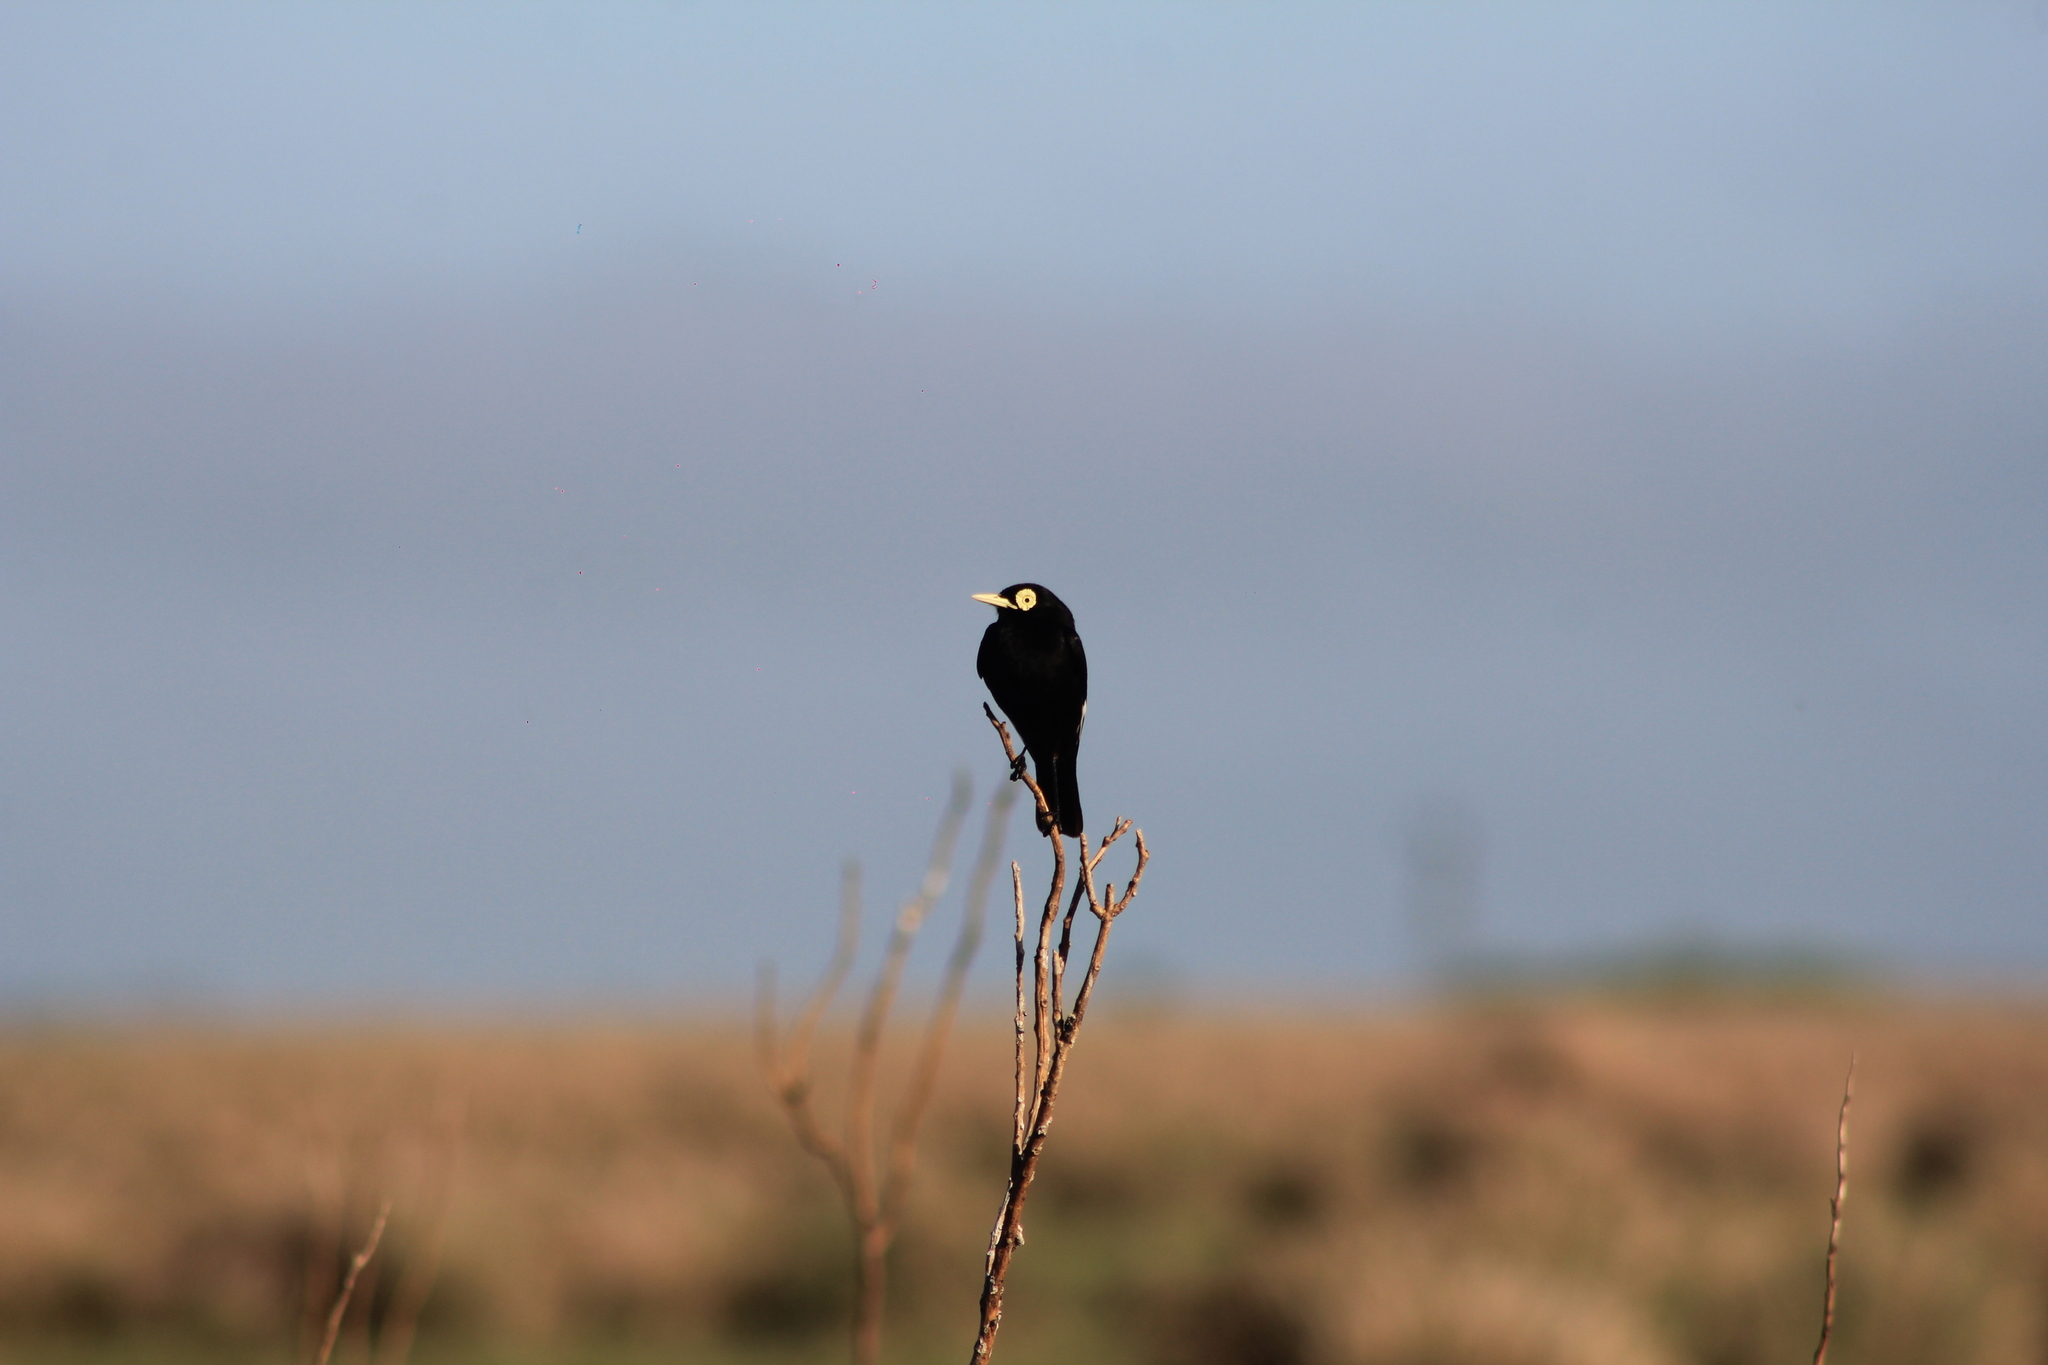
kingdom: Animalia
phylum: Chordata
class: Aves
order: Passeriformes
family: Tyrannidae
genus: Hymenops
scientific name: Hymenops perspicillatus
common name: Spectacled tyrant
